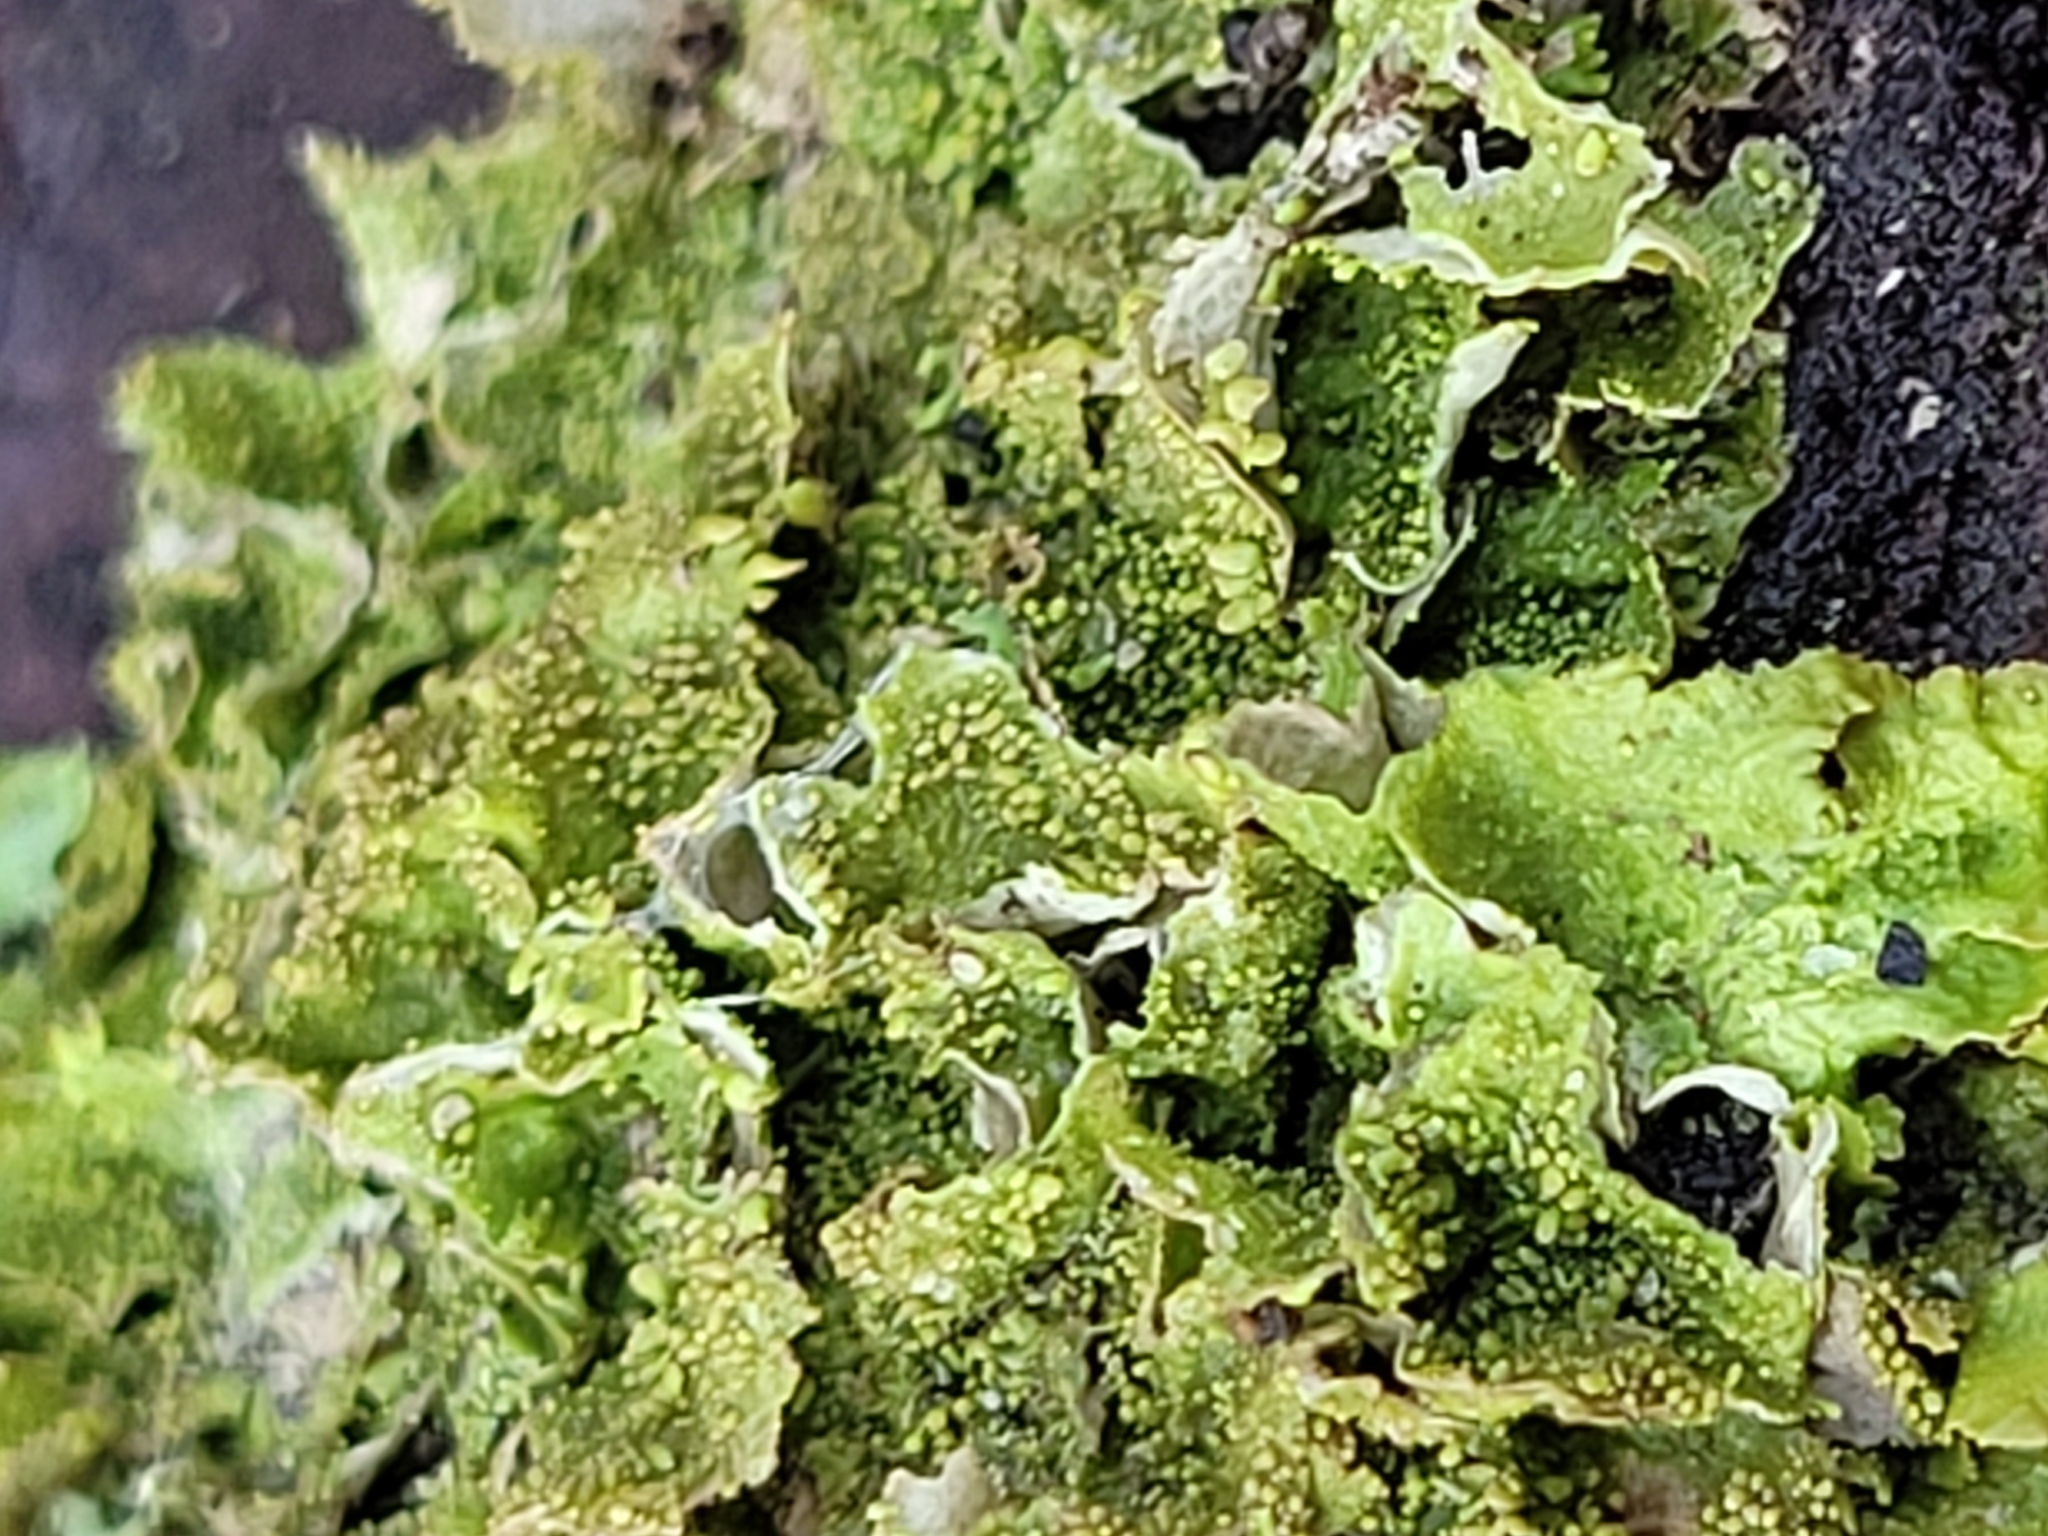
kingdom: Fungi
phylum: Ascomycota
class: Lecanoromycetes
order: Lecanorales
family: Parmeliaceae
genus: Melanohalea
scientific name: Melanohalea exasperatula
